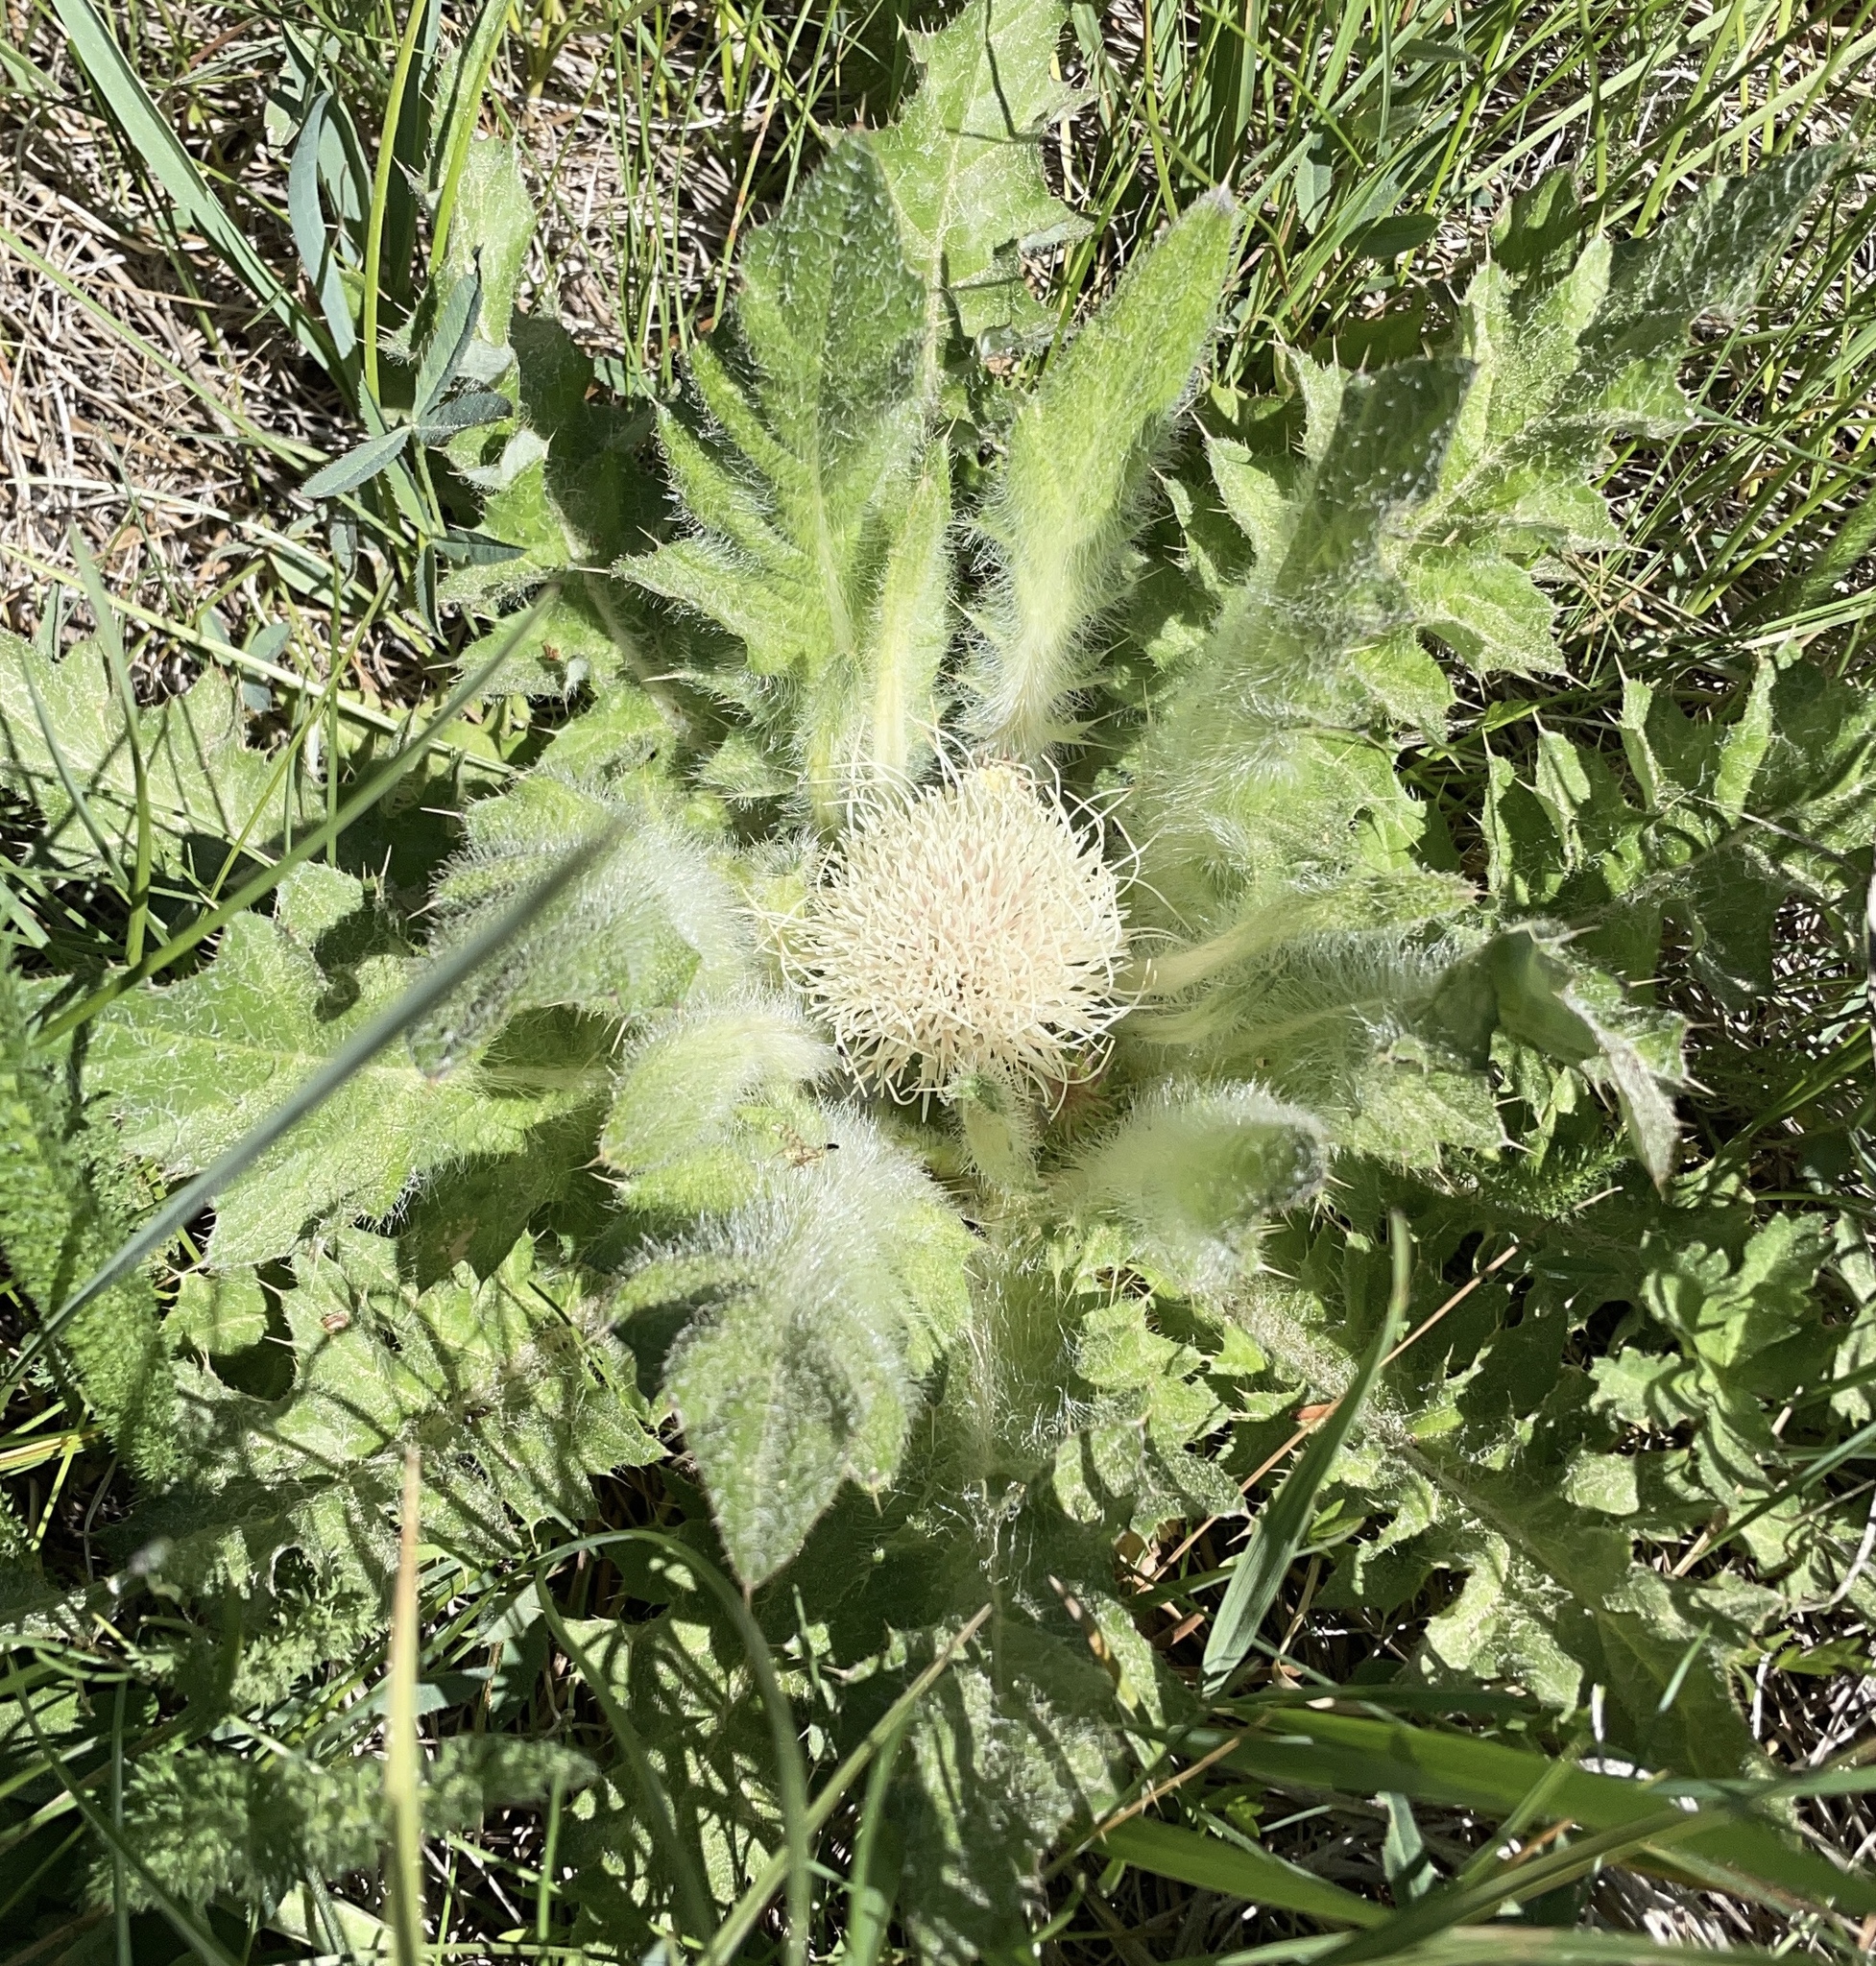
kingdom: Plantae
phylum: Tracheophyta
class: Magnoliopsida
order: Asterales
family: Asteraceae
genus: Cirsium
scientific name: Cirsium scariosum
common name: Meadow thistle
